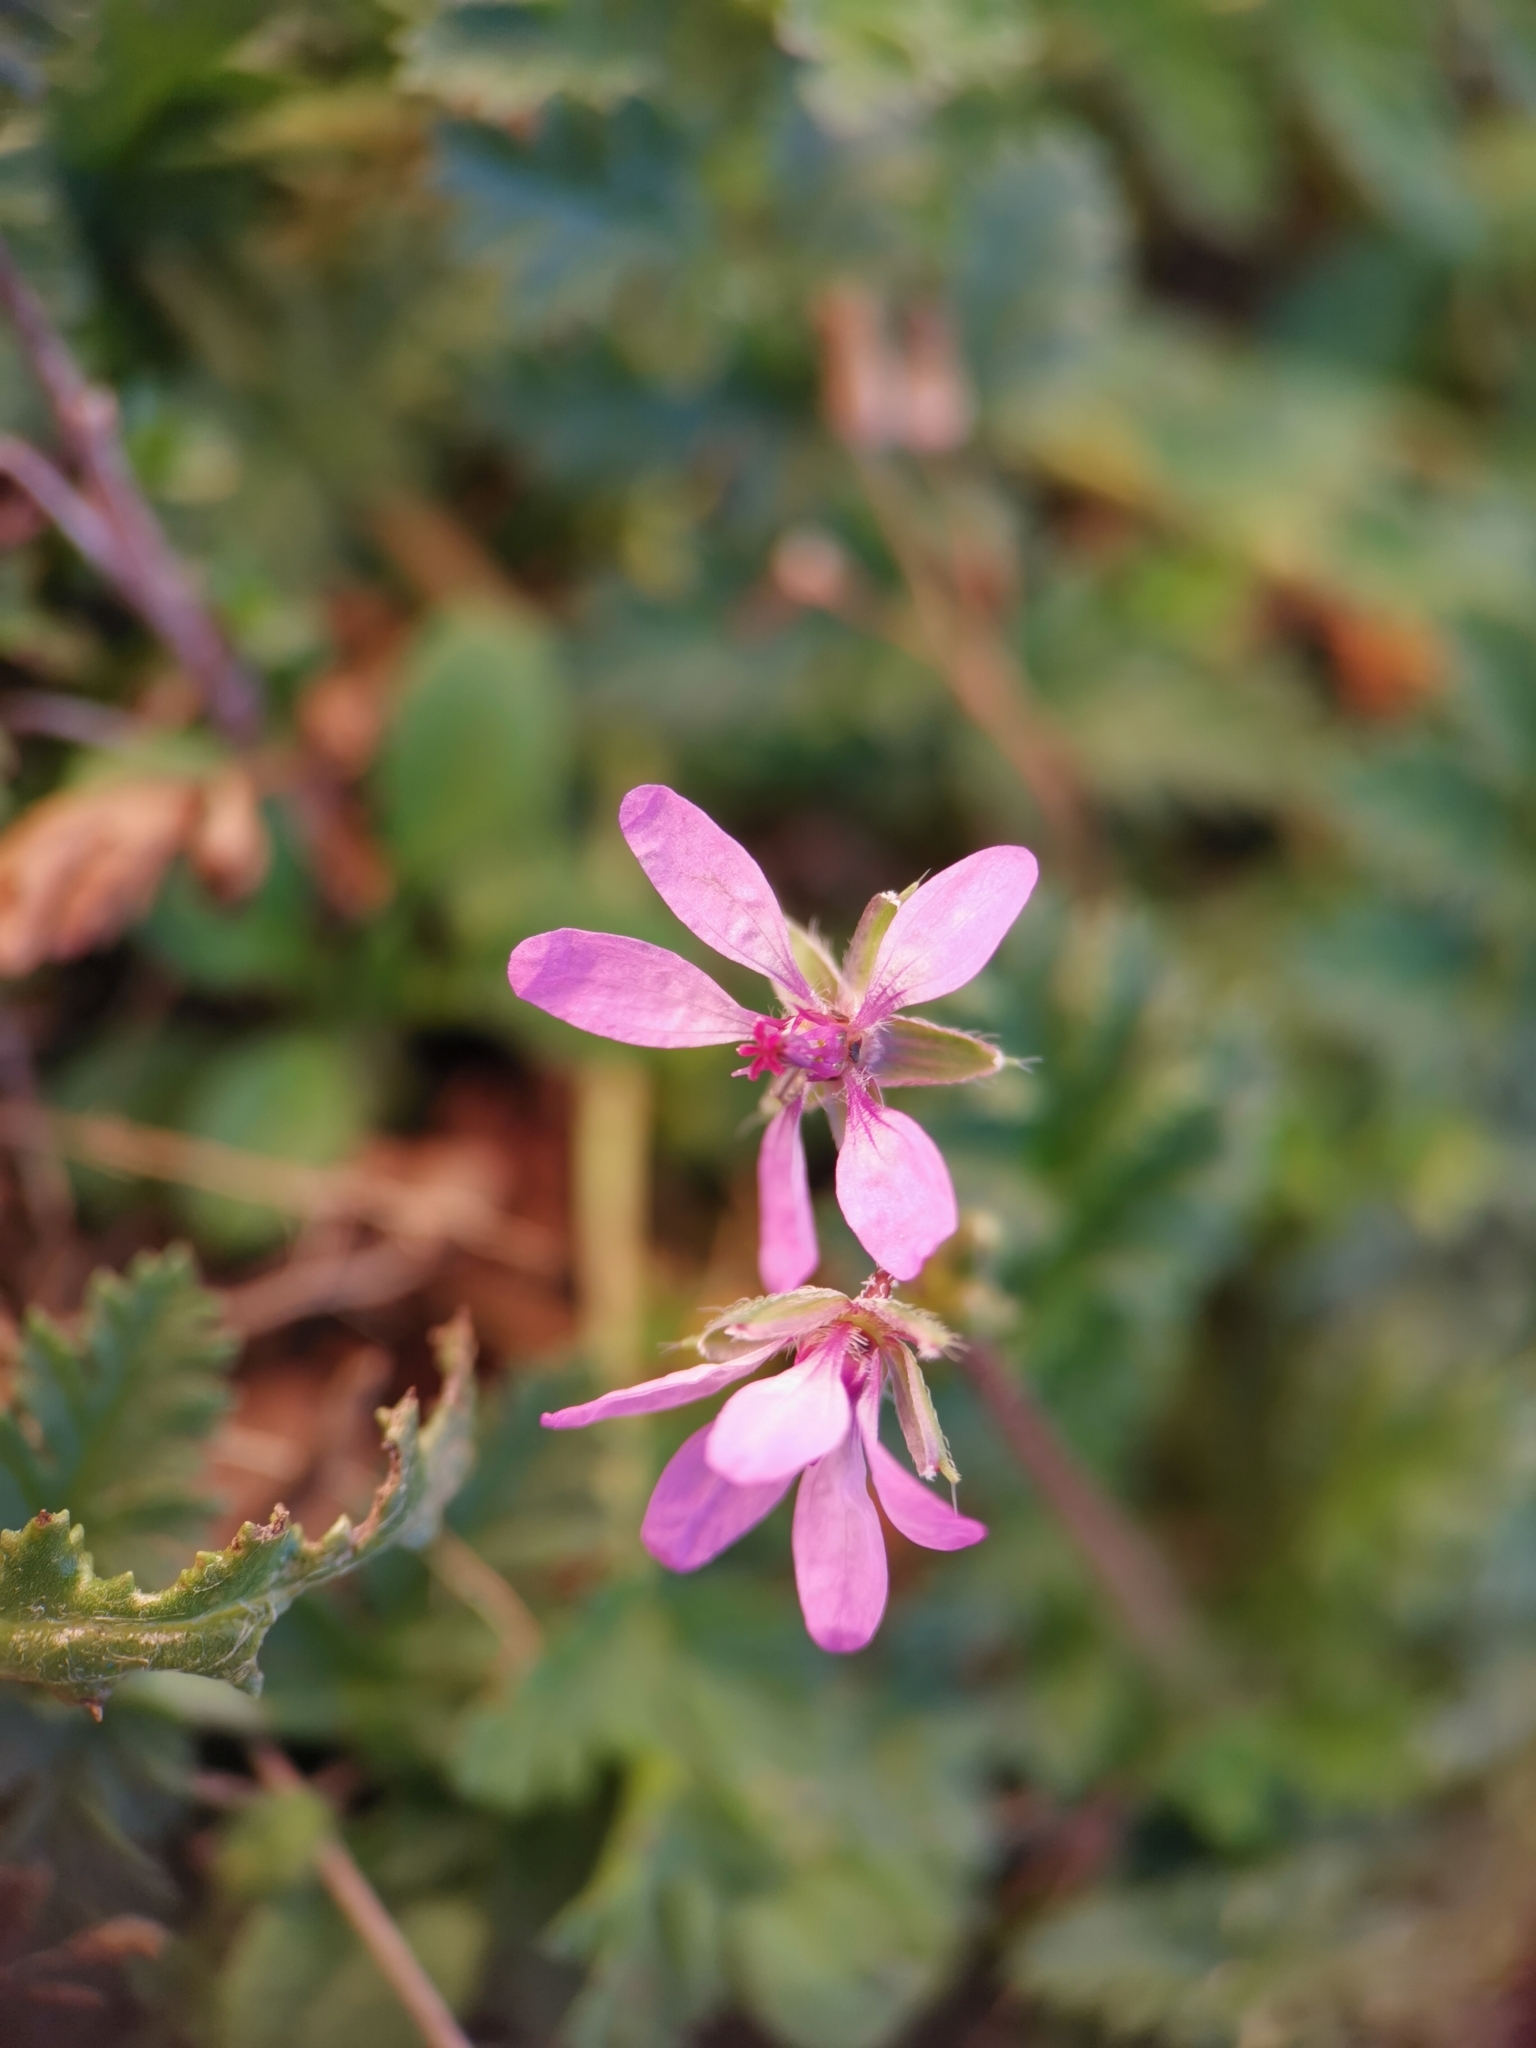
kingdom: Plantae
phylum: Tracheophyta
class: Magnoliopsida
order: Geraniales
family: Geraniaceae
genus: Erodium
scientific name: Erodium cicutarium
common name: Common stork's-bill
